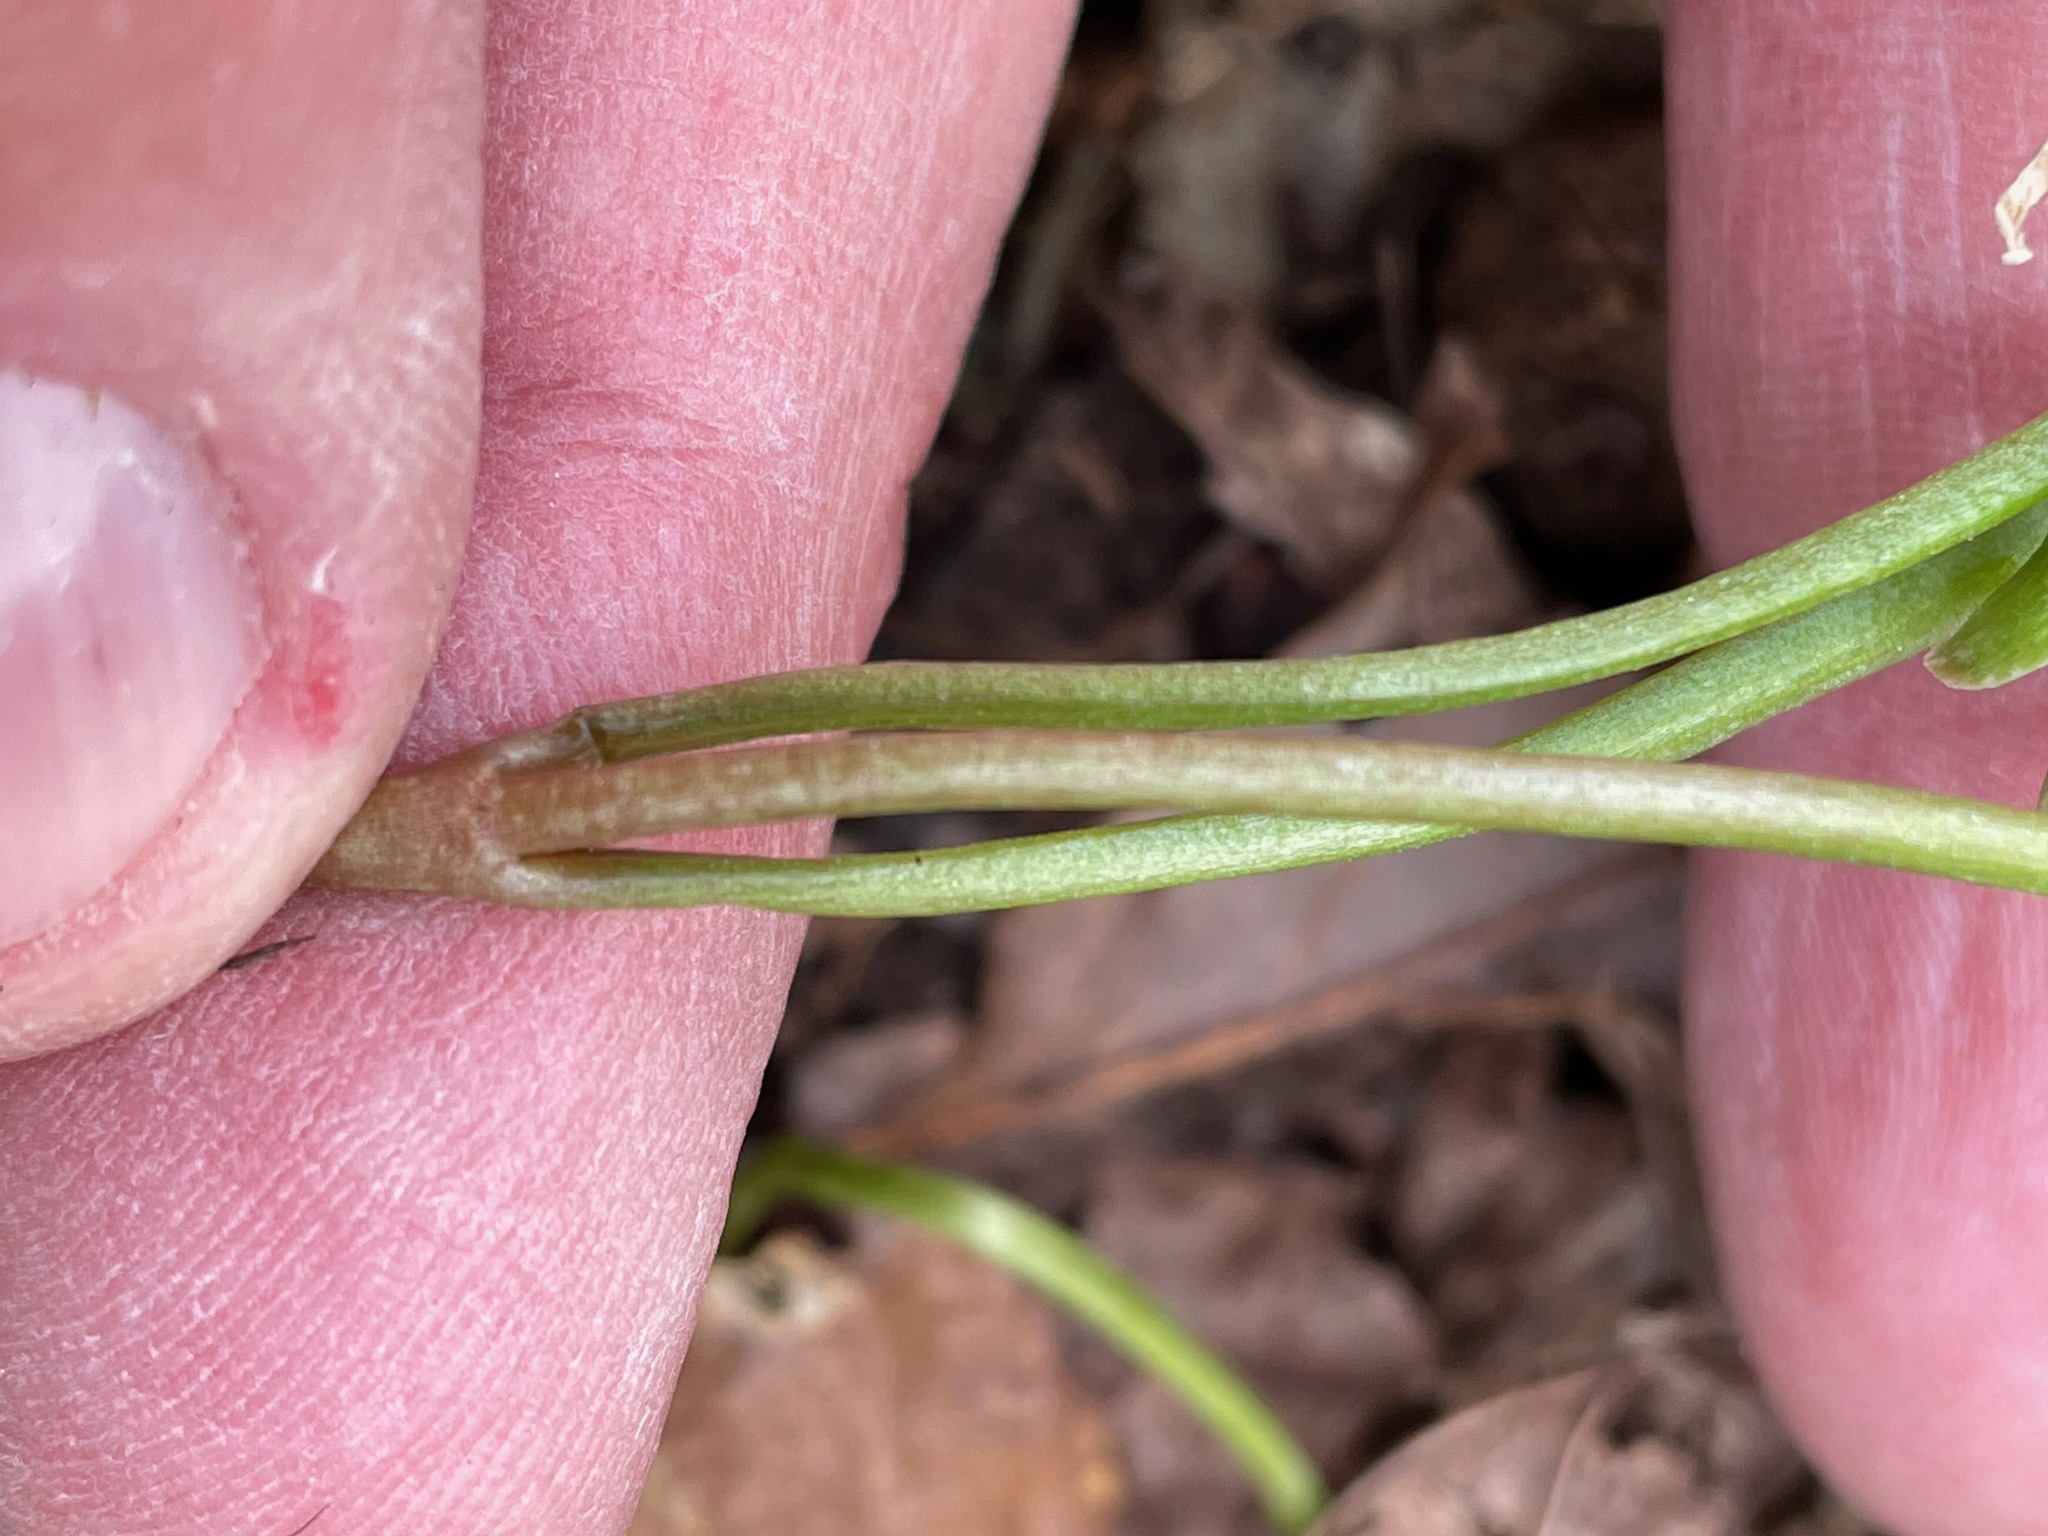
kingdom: Plantae
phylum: Tracheophyta
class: Magnoliopsida
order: Caryophyllales
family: Montiaceae
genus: Claytonia
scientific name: Claytonia virginica
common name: Virginia springbeauty
